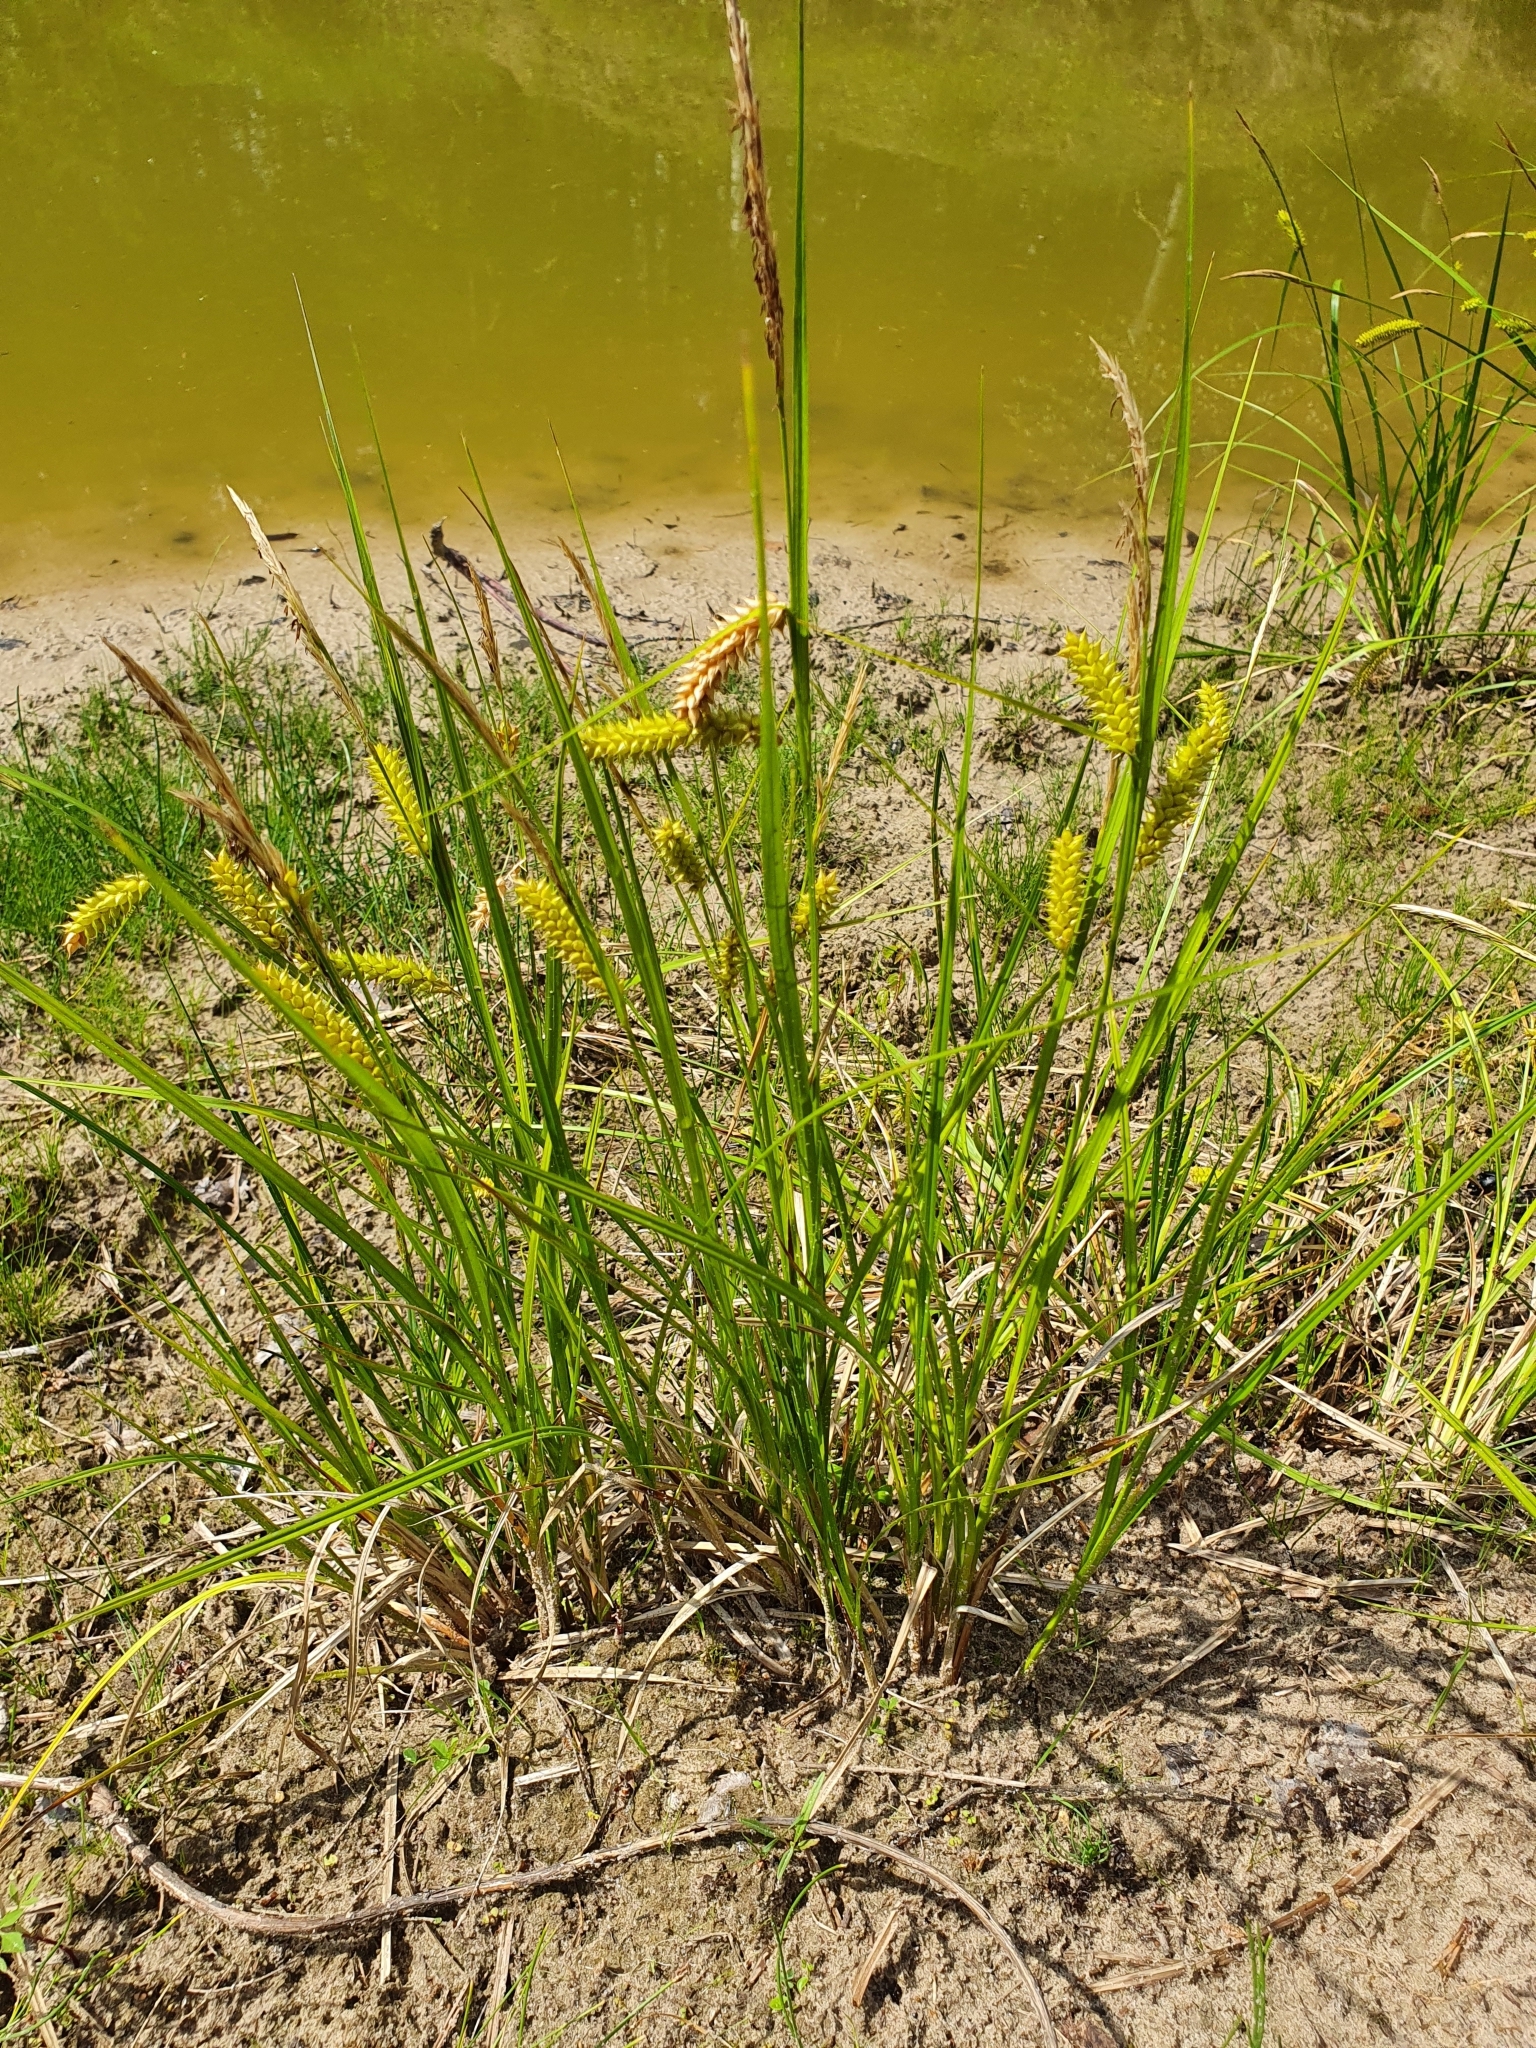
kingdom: Plantae
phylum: Tracheophyta
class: Liliopsida
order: Poales
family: Cyperaceae
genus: Carex
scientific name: Carex vesicaria
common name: Bladder-sedge
